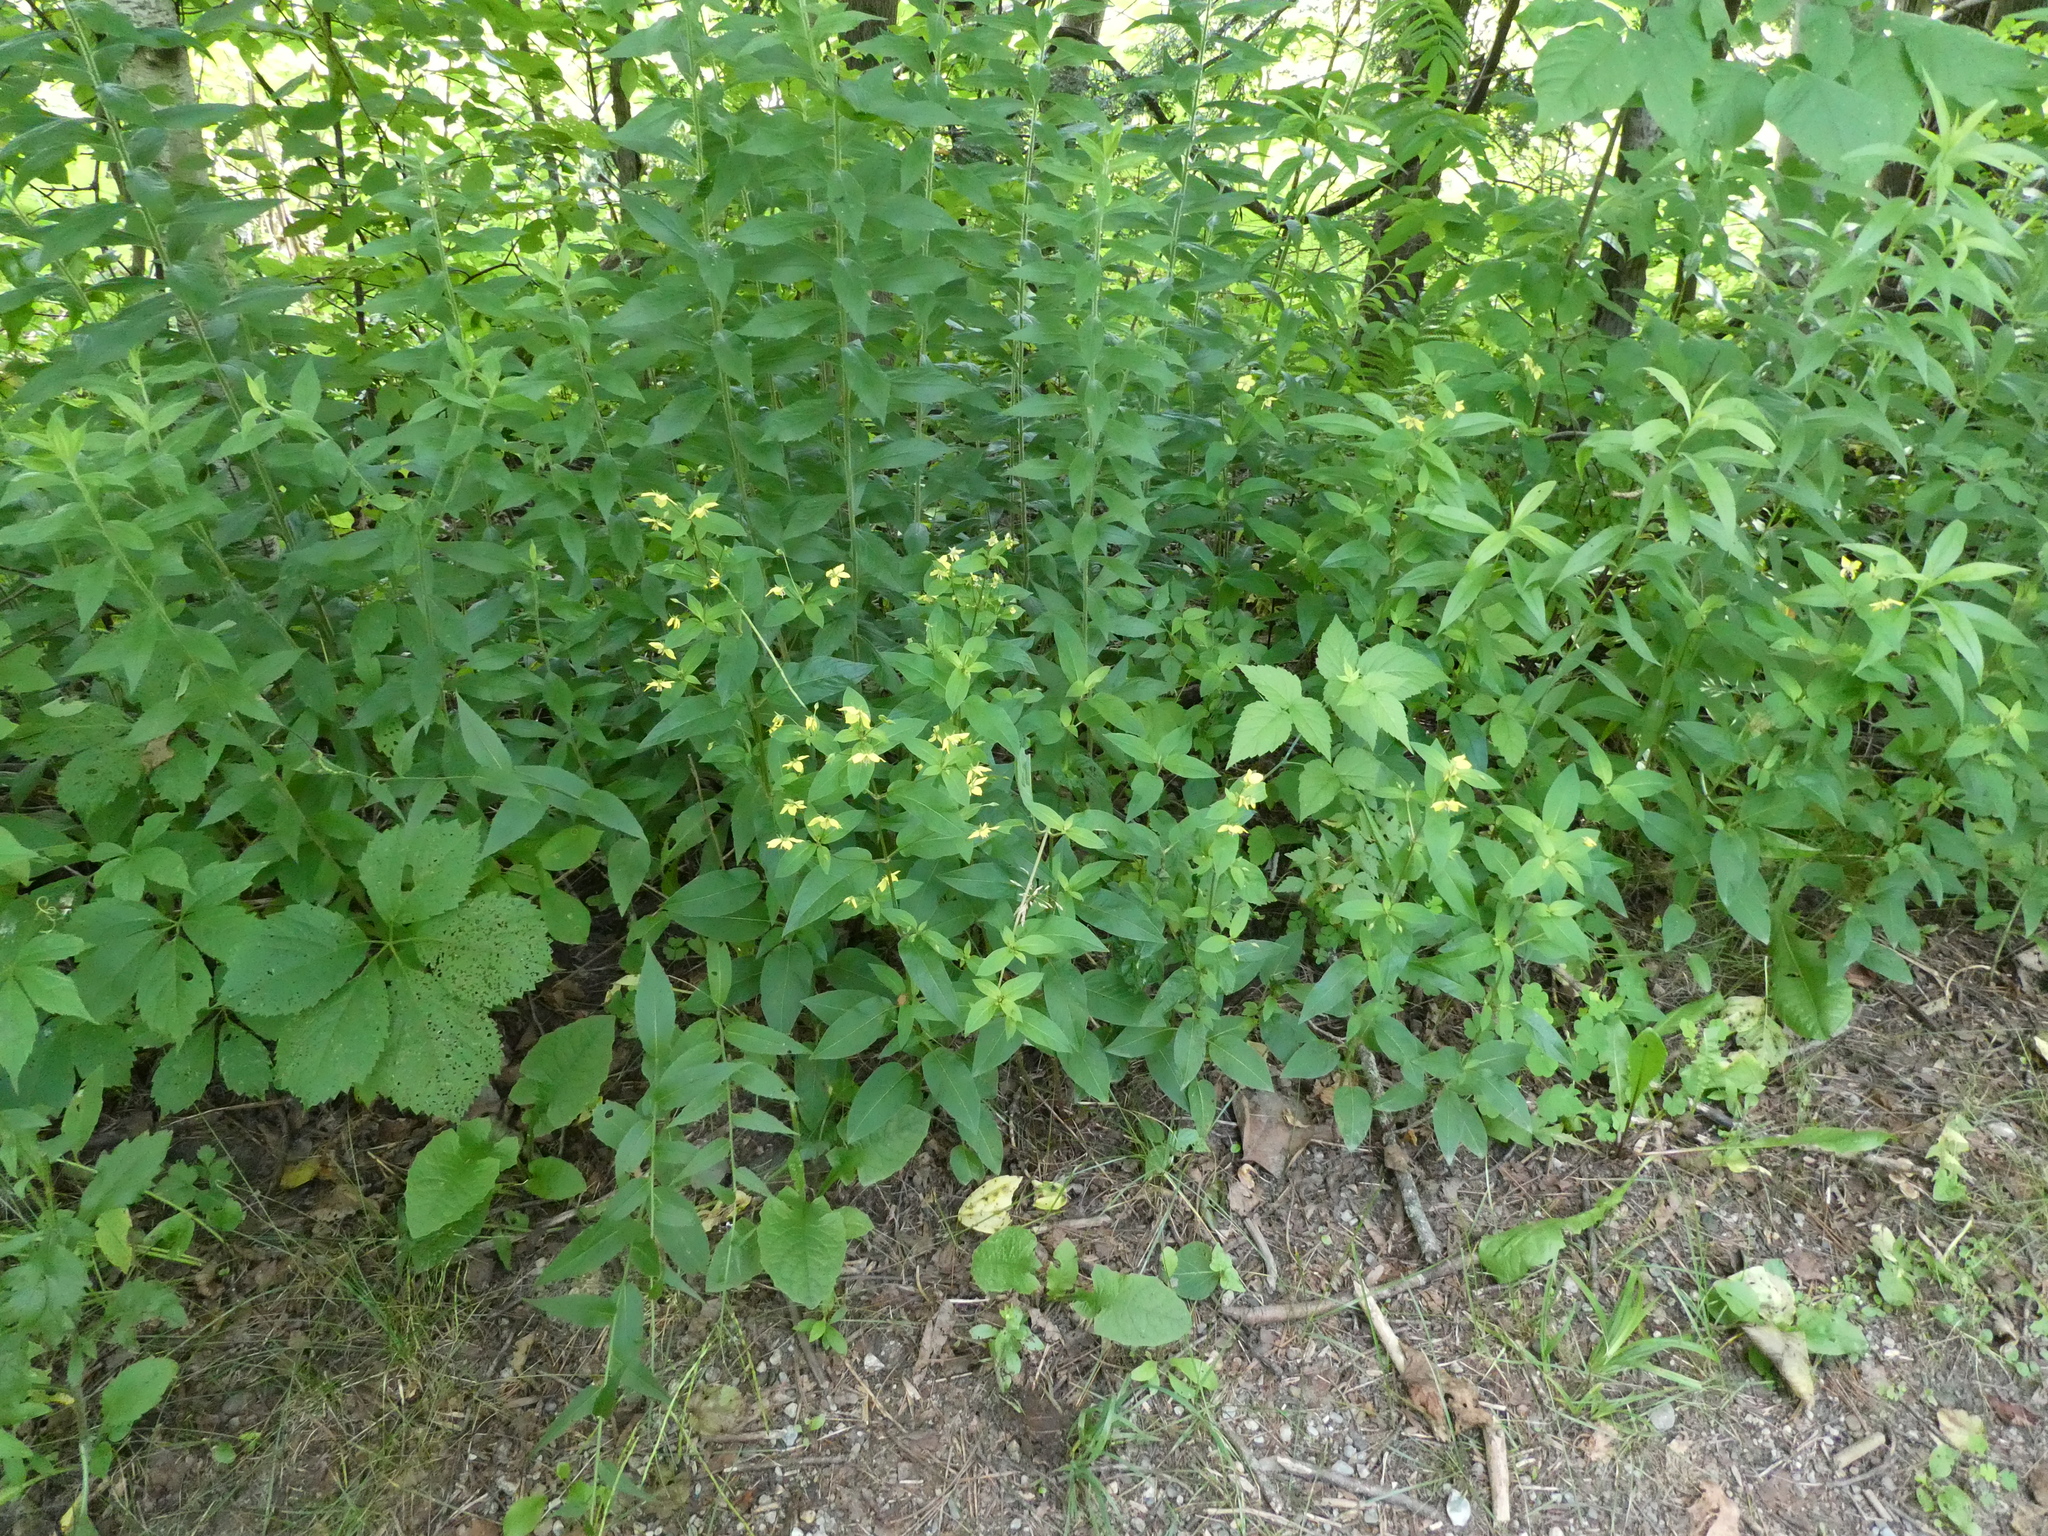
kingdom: Plantae
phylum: Tracheophyta
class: Magnoliopsida
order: Ericales
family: Primulaceae
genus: Lysimachia
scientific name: Lysimachia ciliata
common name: Fringed loosestrife
